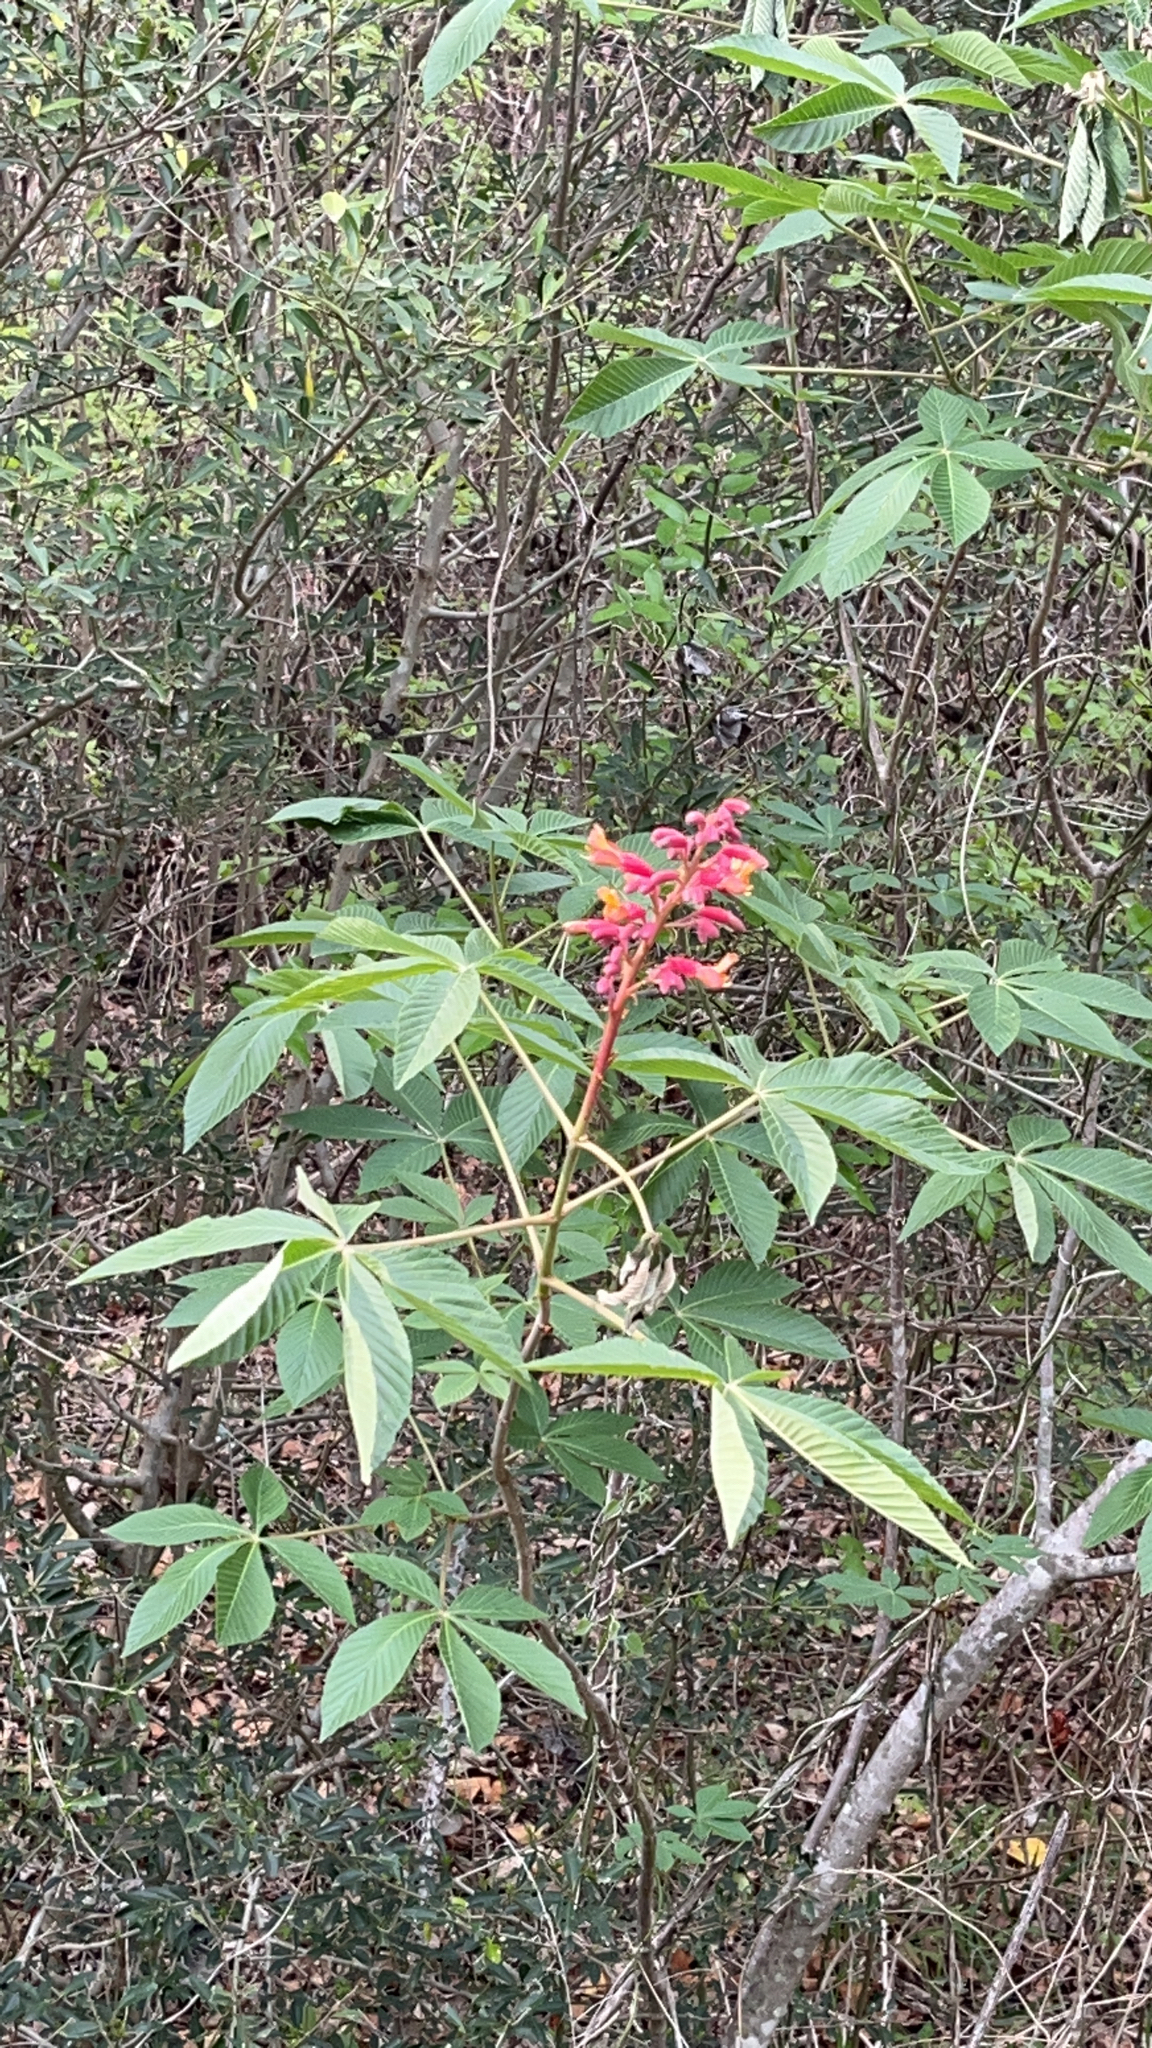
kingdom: Plantae
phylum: Tracheophyta
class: Magnoliopsida
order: Sapindales
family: Sapindaceae
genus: Aesculus
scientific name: Aesculus pavia
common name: Red buckeye
